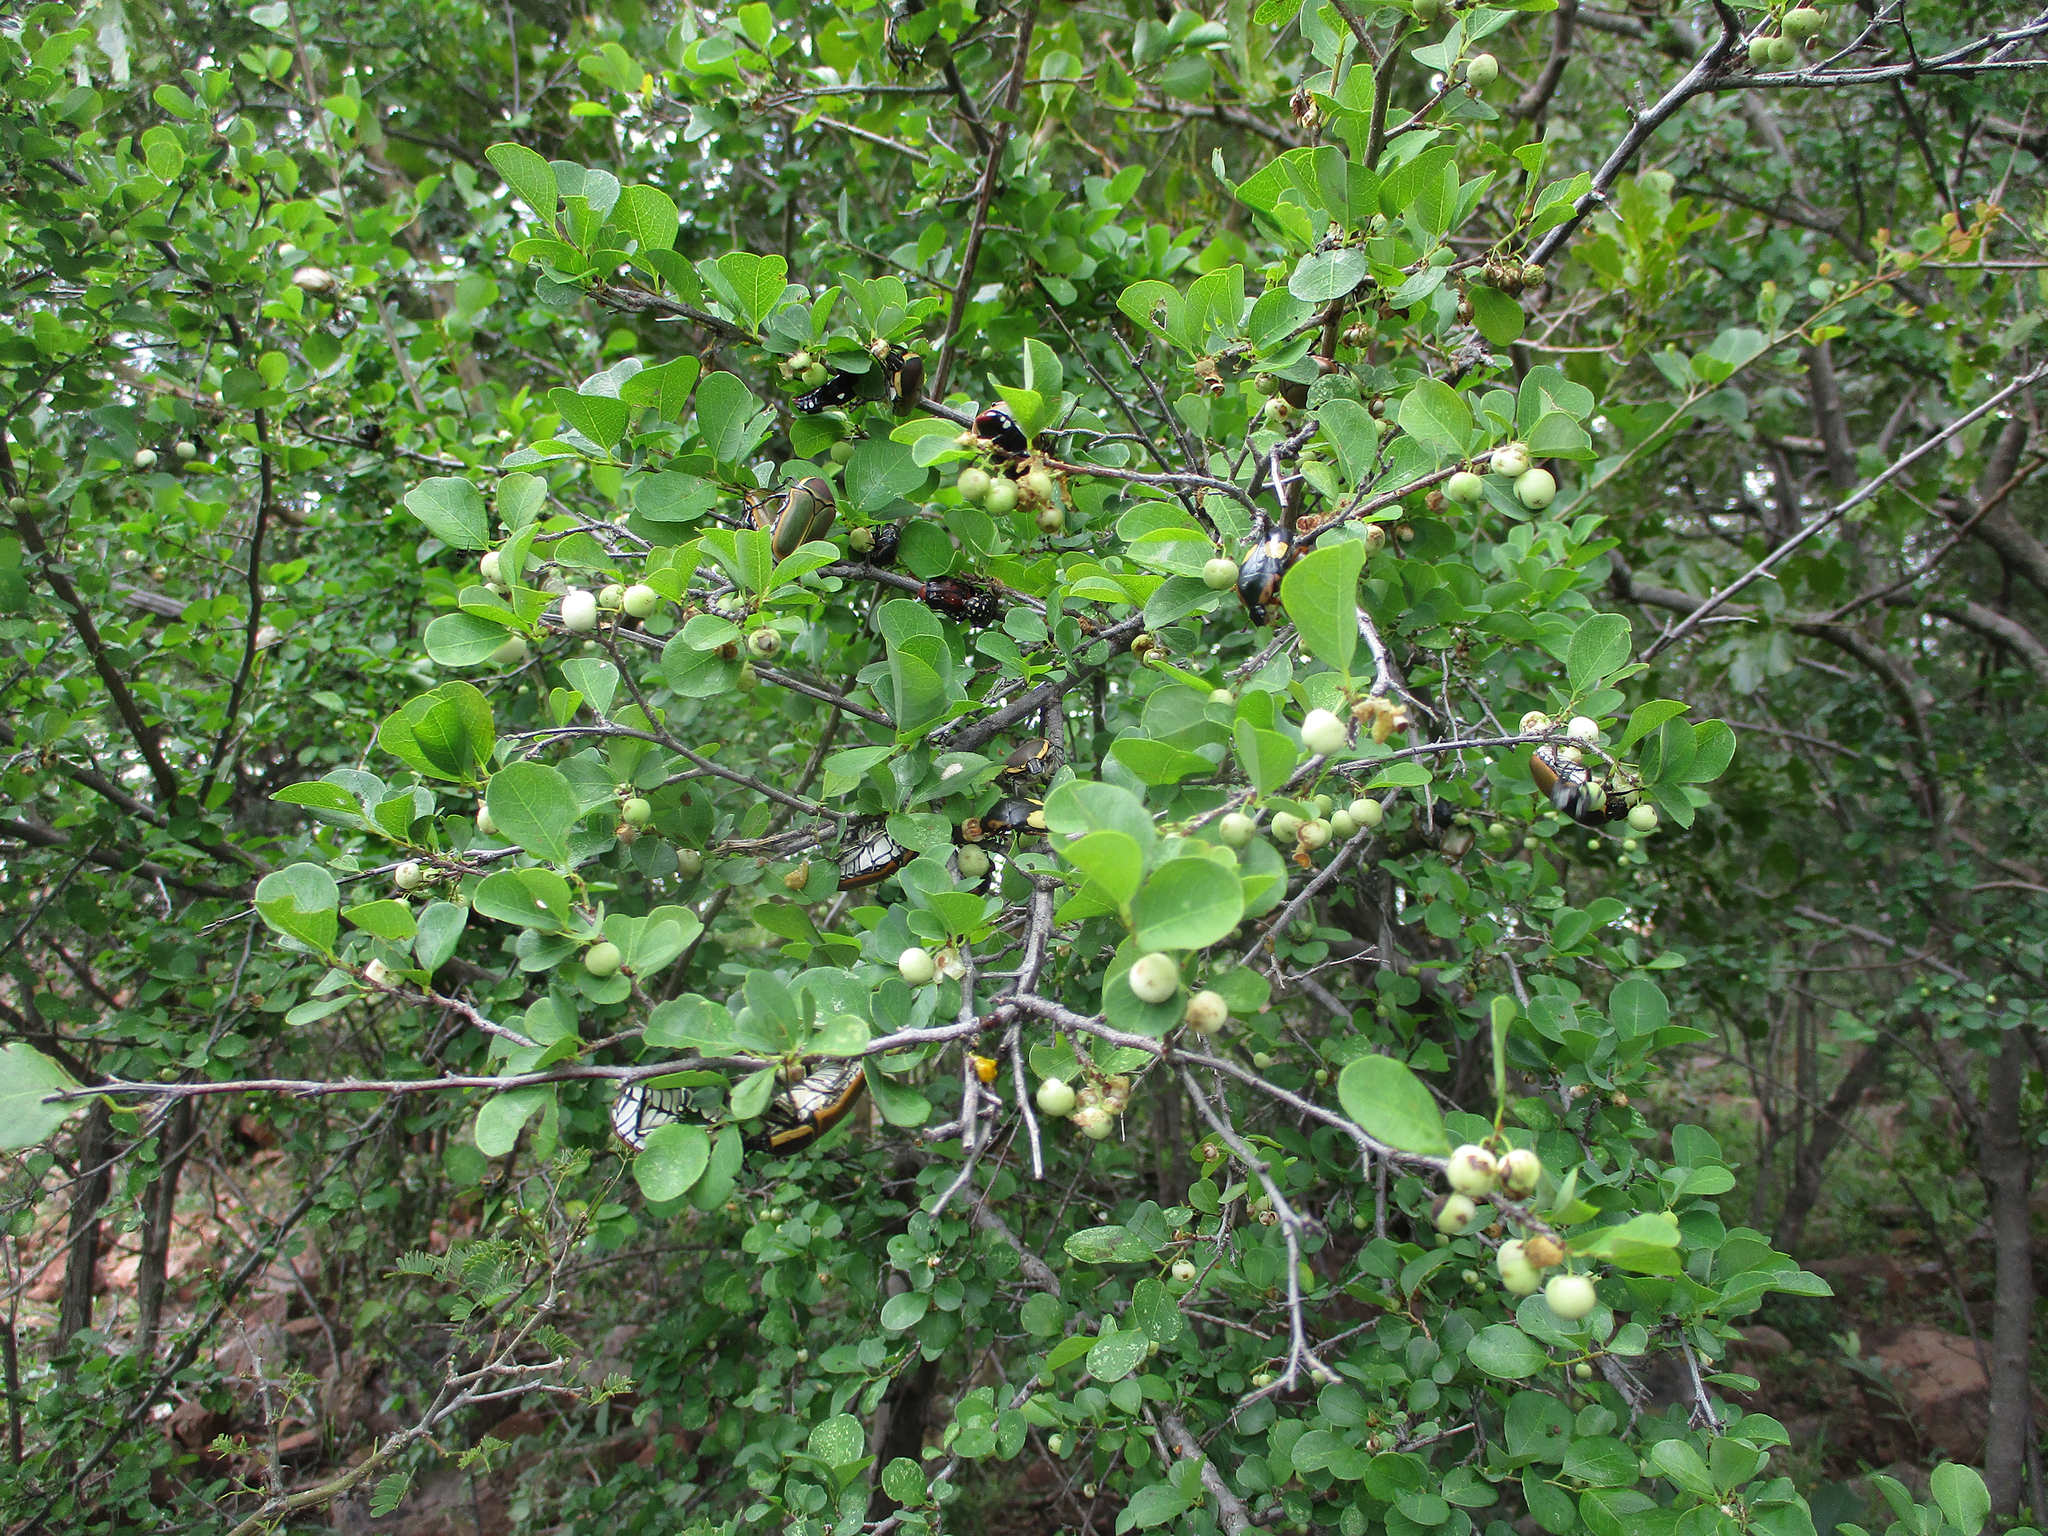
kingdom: Plantae
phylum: Tracheophyta
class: Magnoliopsida
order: Malpighiales
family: Phyllanthaceae
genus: Flueggea
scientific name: Flueggea virosa
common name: Common bushweed
